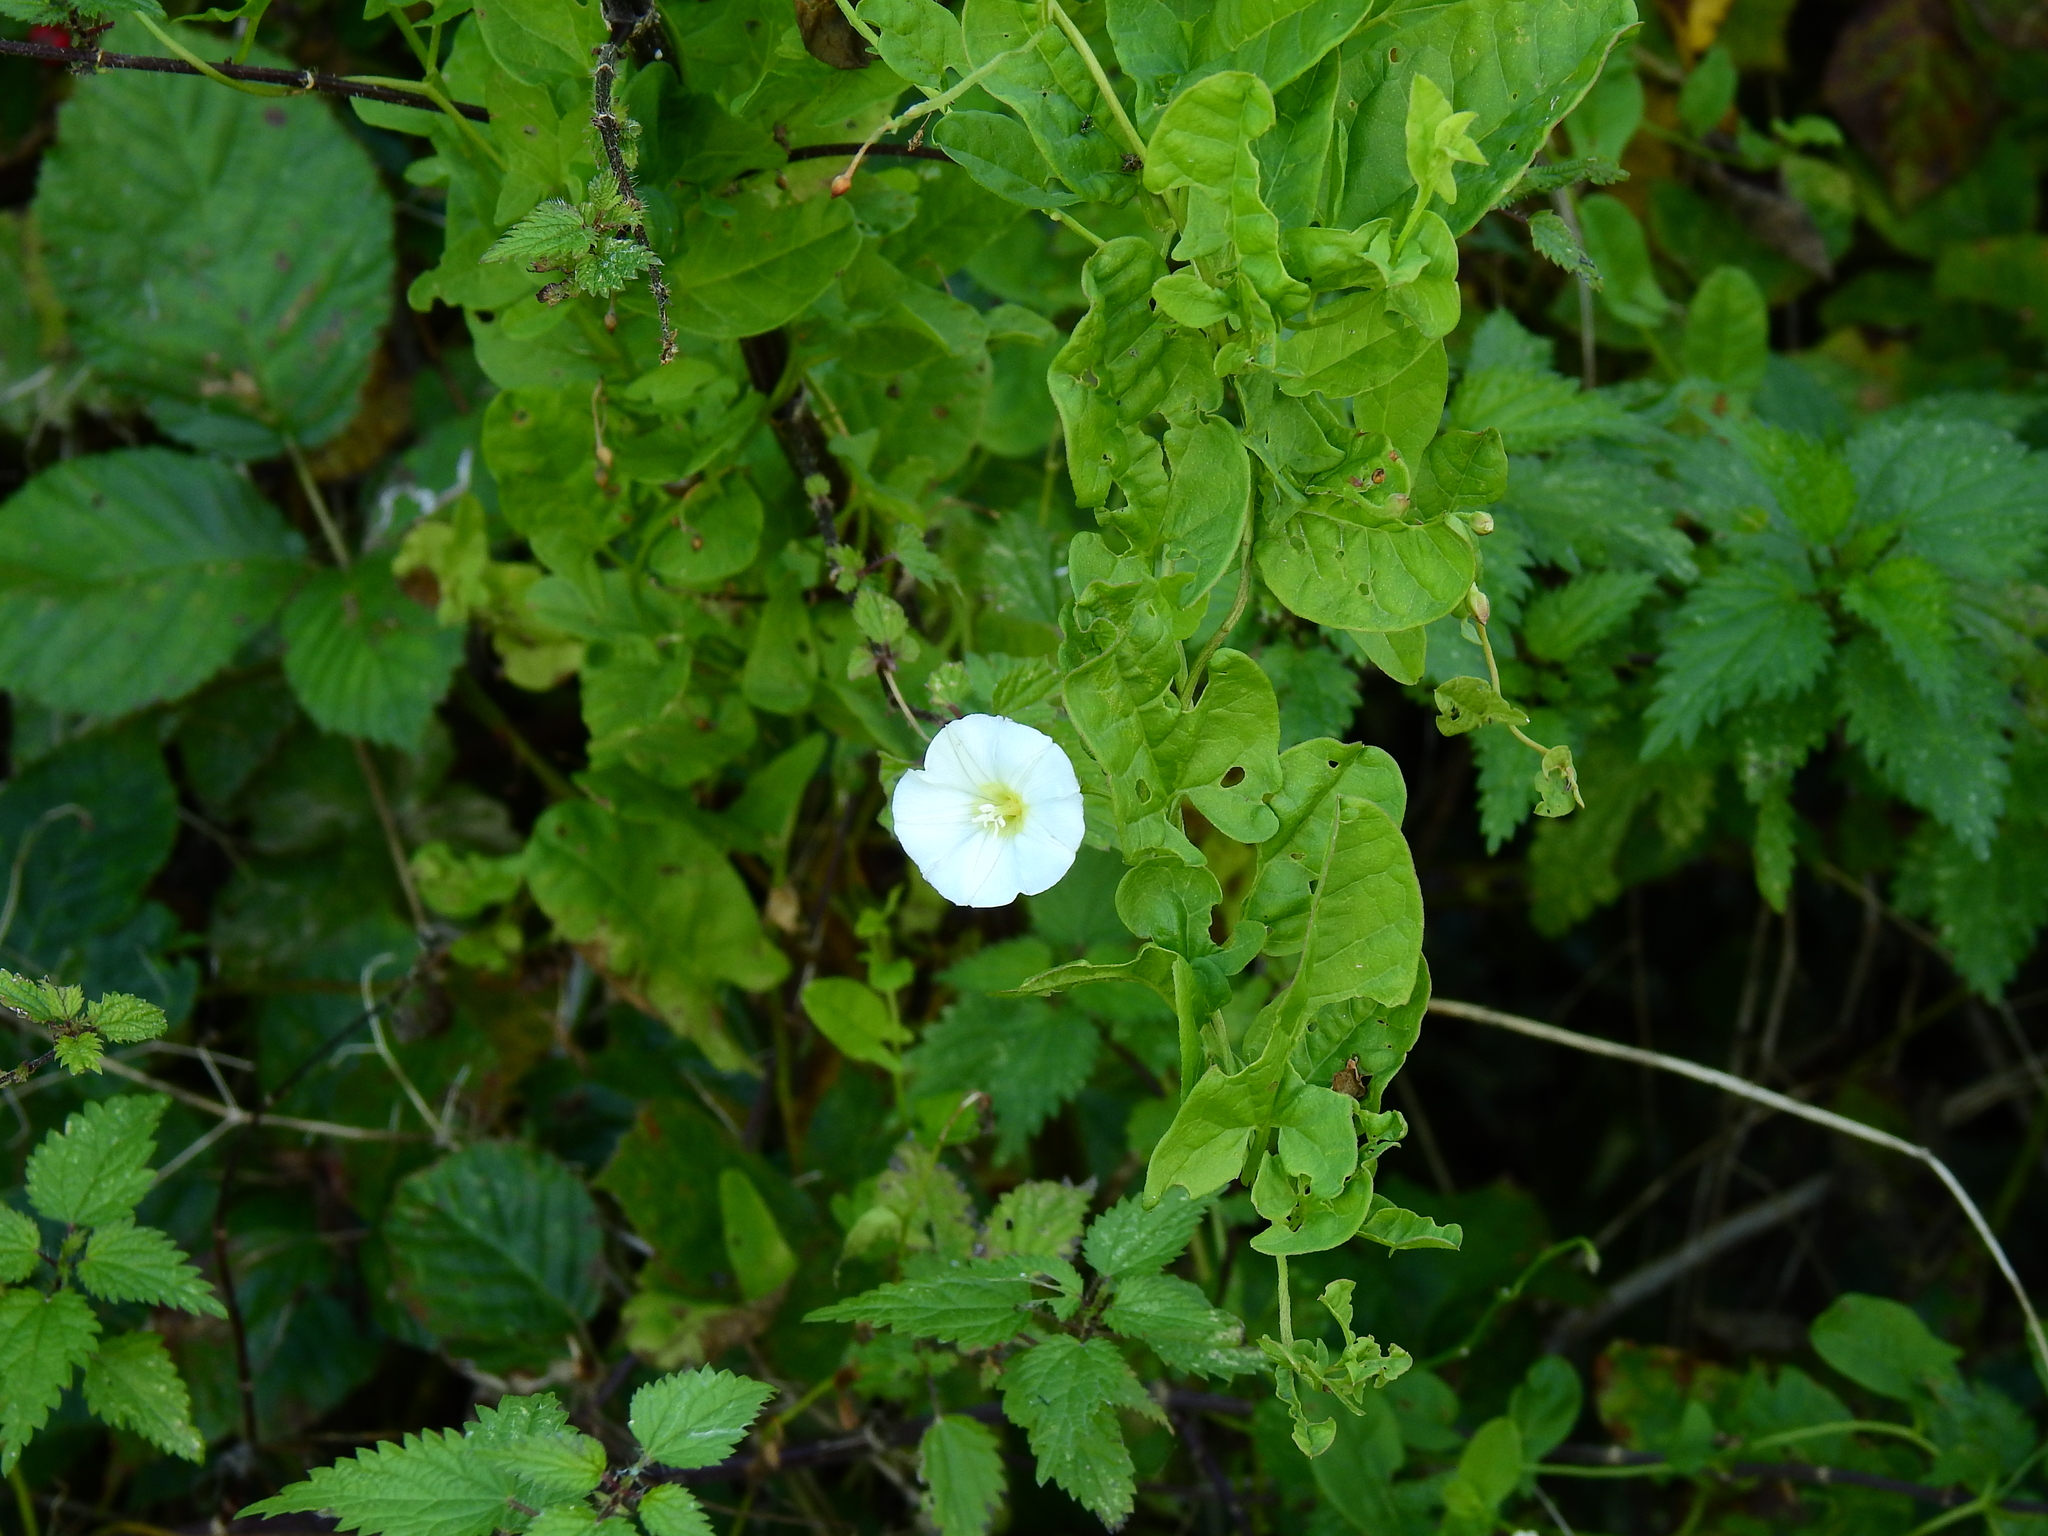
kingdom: Plantae
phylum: Tracheophyta
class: Magnoliopsida
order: Solanales
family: Convolvulaceae
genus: Convolvulus
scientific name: Convolvulus arvensis
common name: Field bindweed
